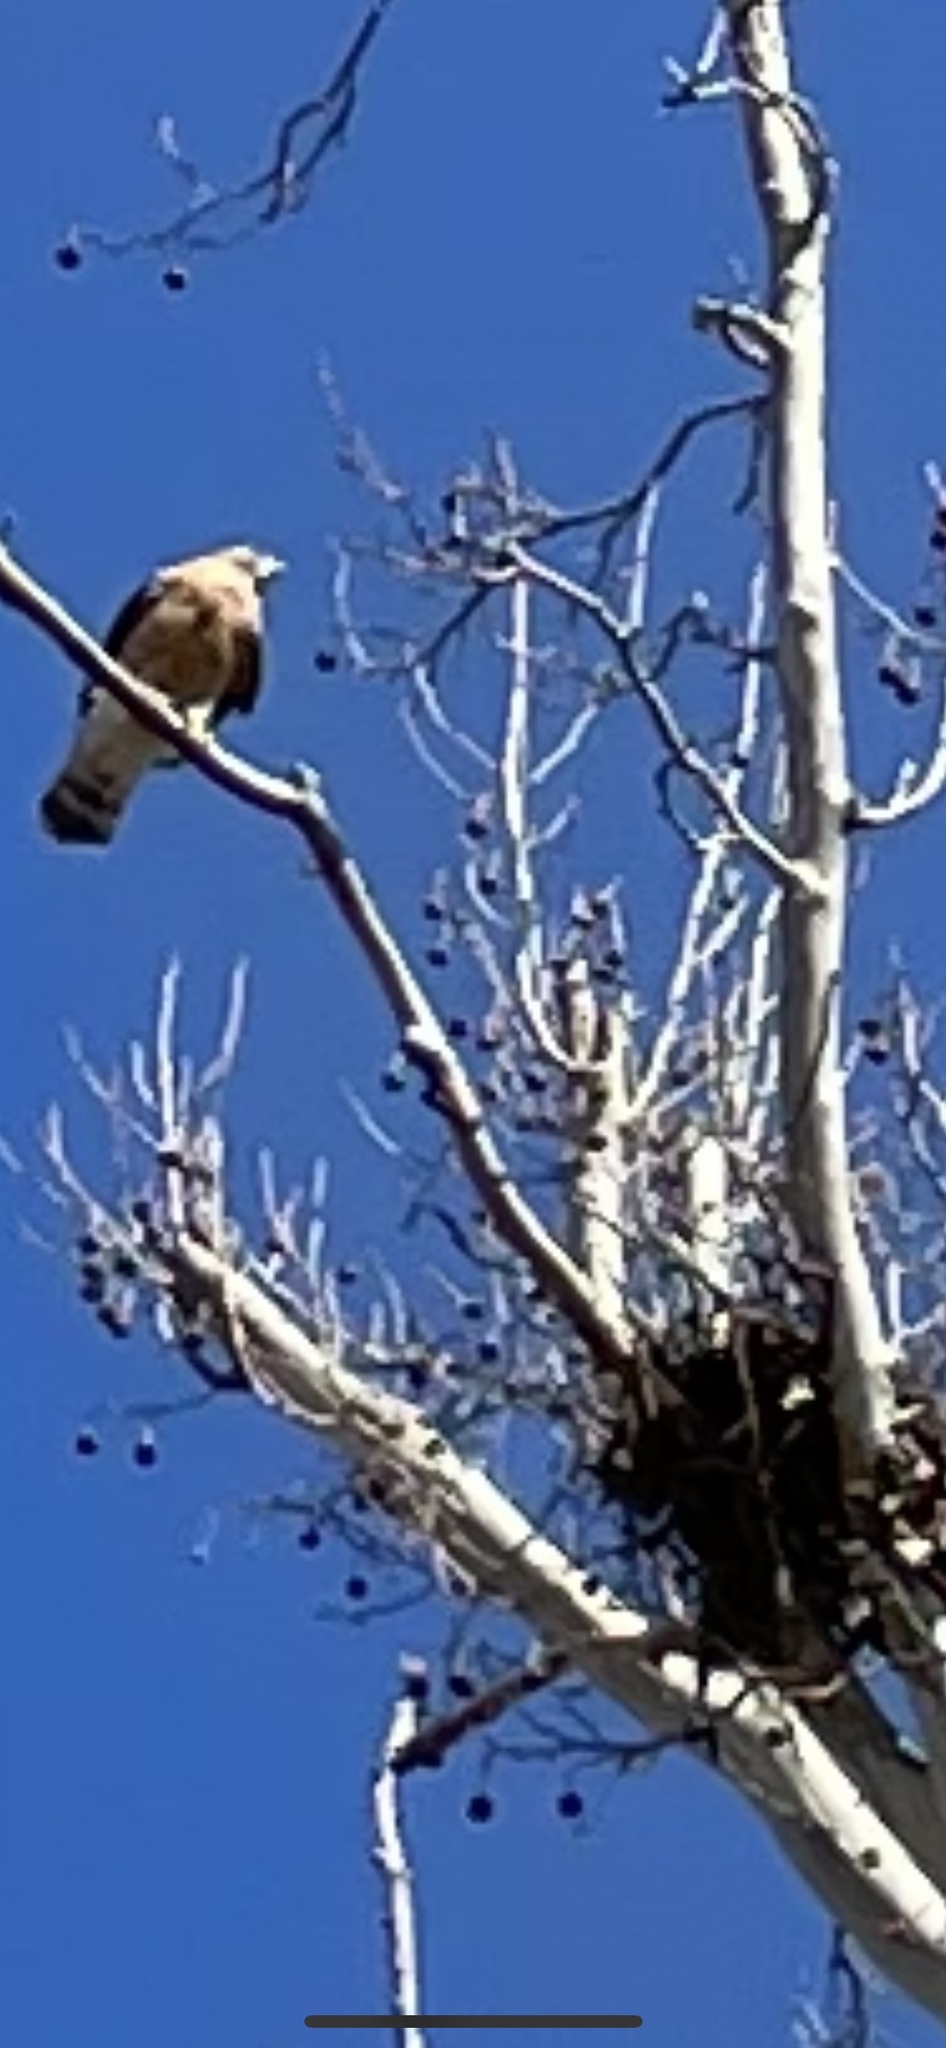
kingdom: Animalia
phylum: Chordata
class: Aves
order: Accipitriformes
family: Accipitridae
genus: Buteo
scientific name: Buteo lineatus
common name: Red-shouldered hawk
